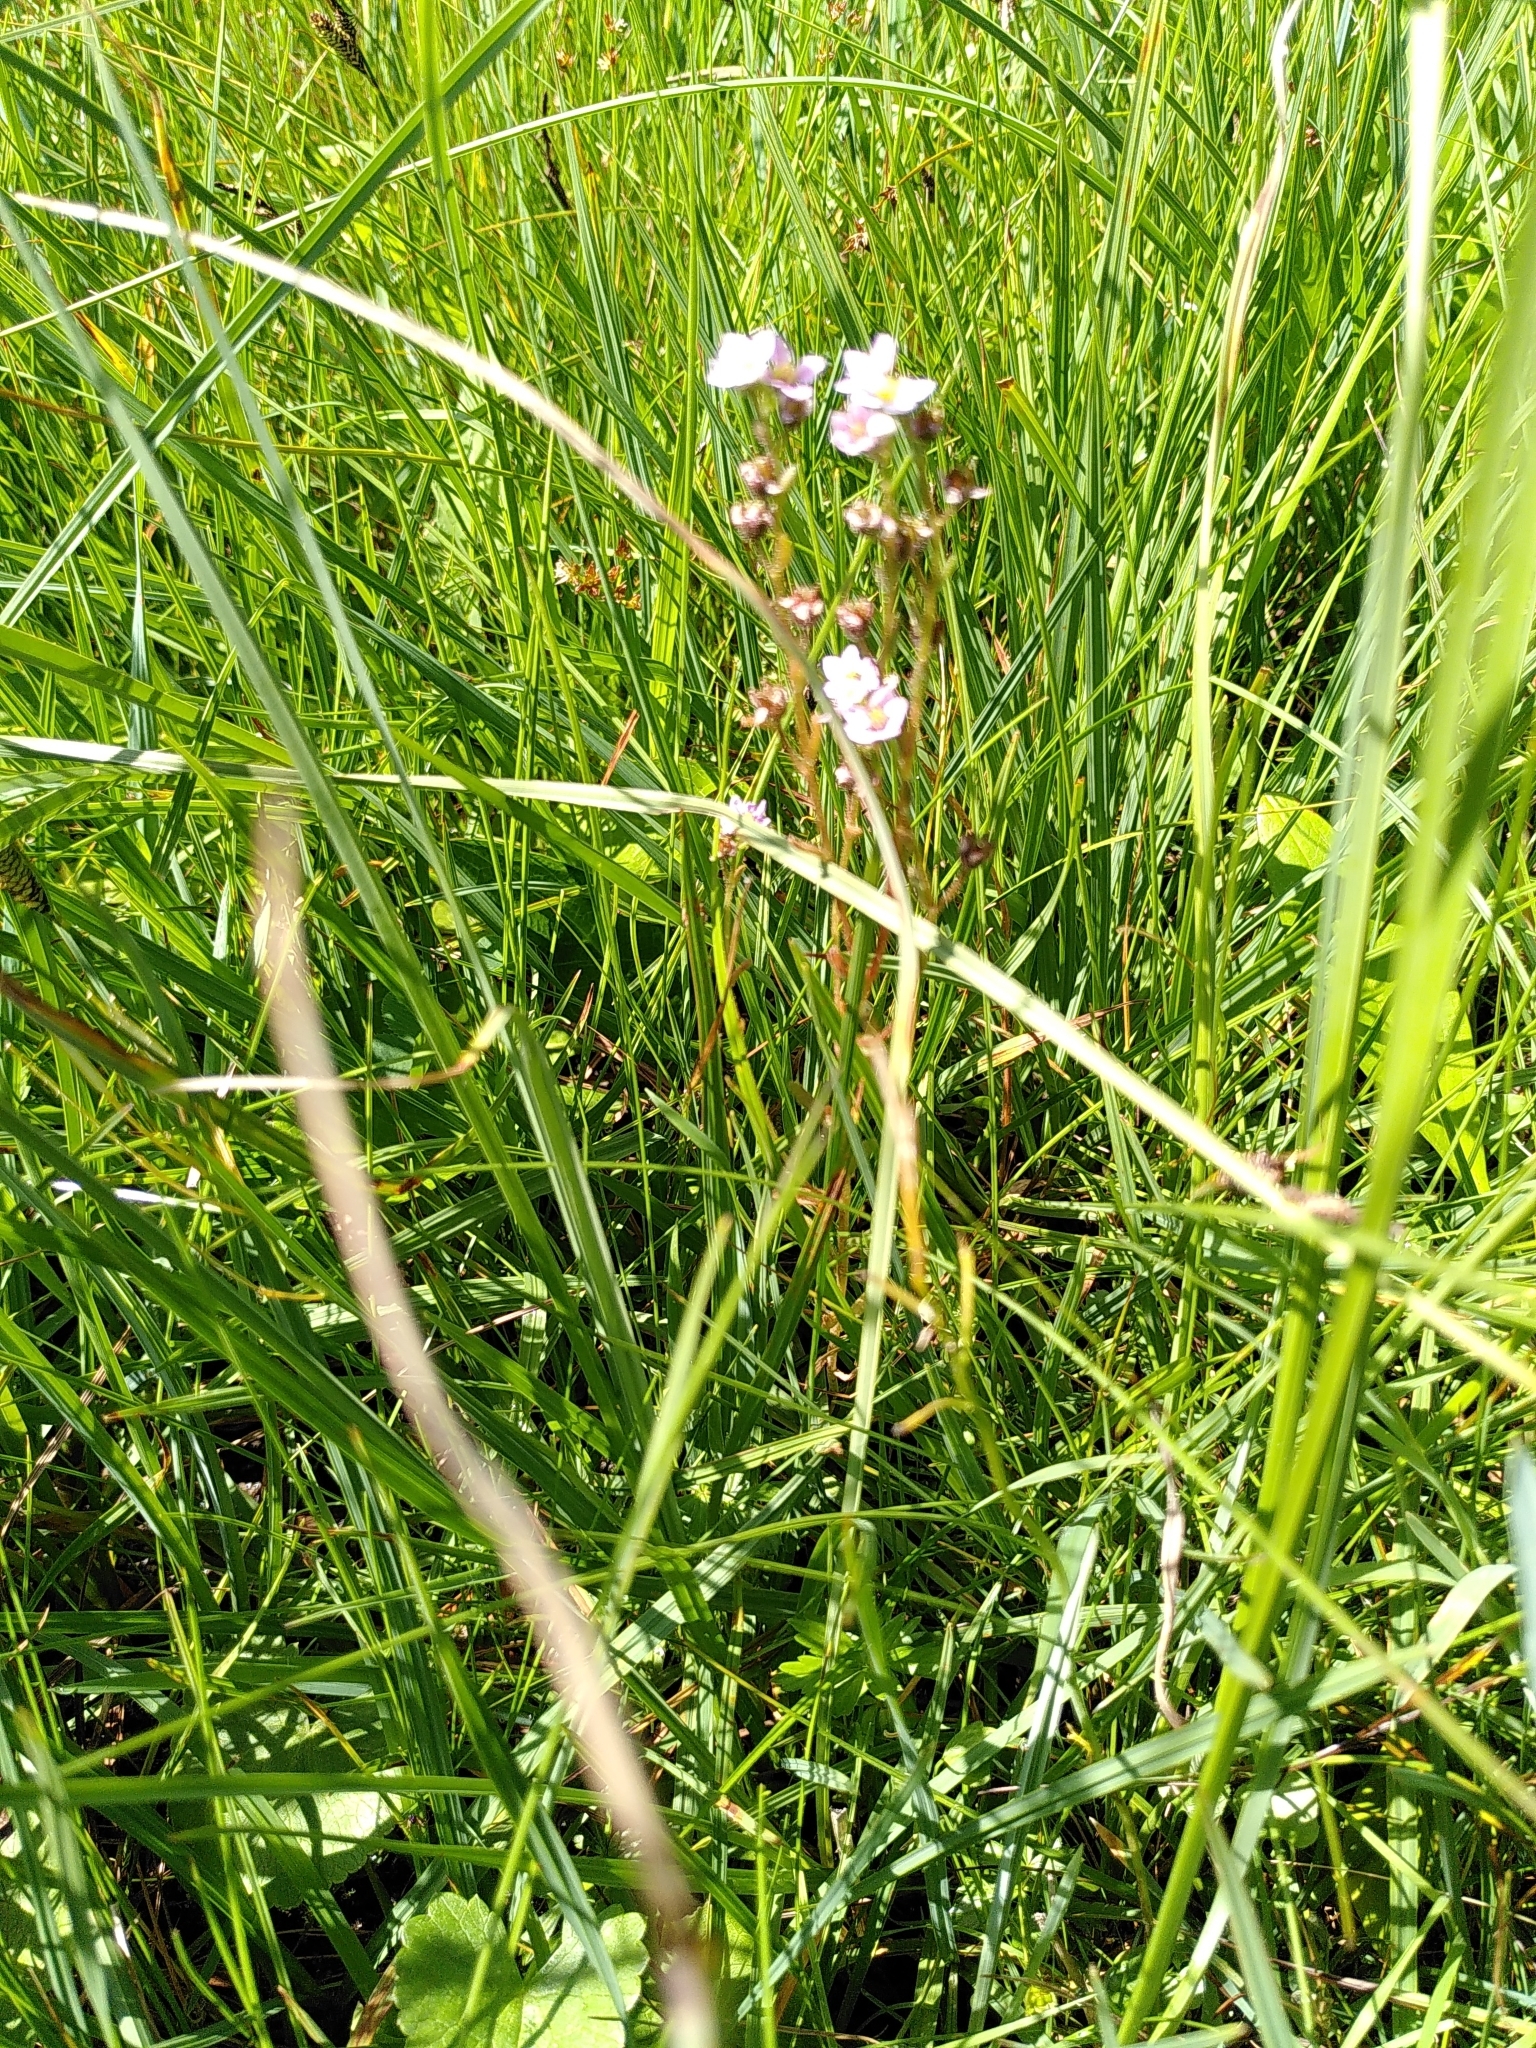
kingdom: Plantae
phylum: Tracheophyta
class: Magnoliopsida
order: Saxifragales
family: Crassulaceae
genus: Sedum
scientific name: Sedum villosum
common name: Hairy stonecrop
